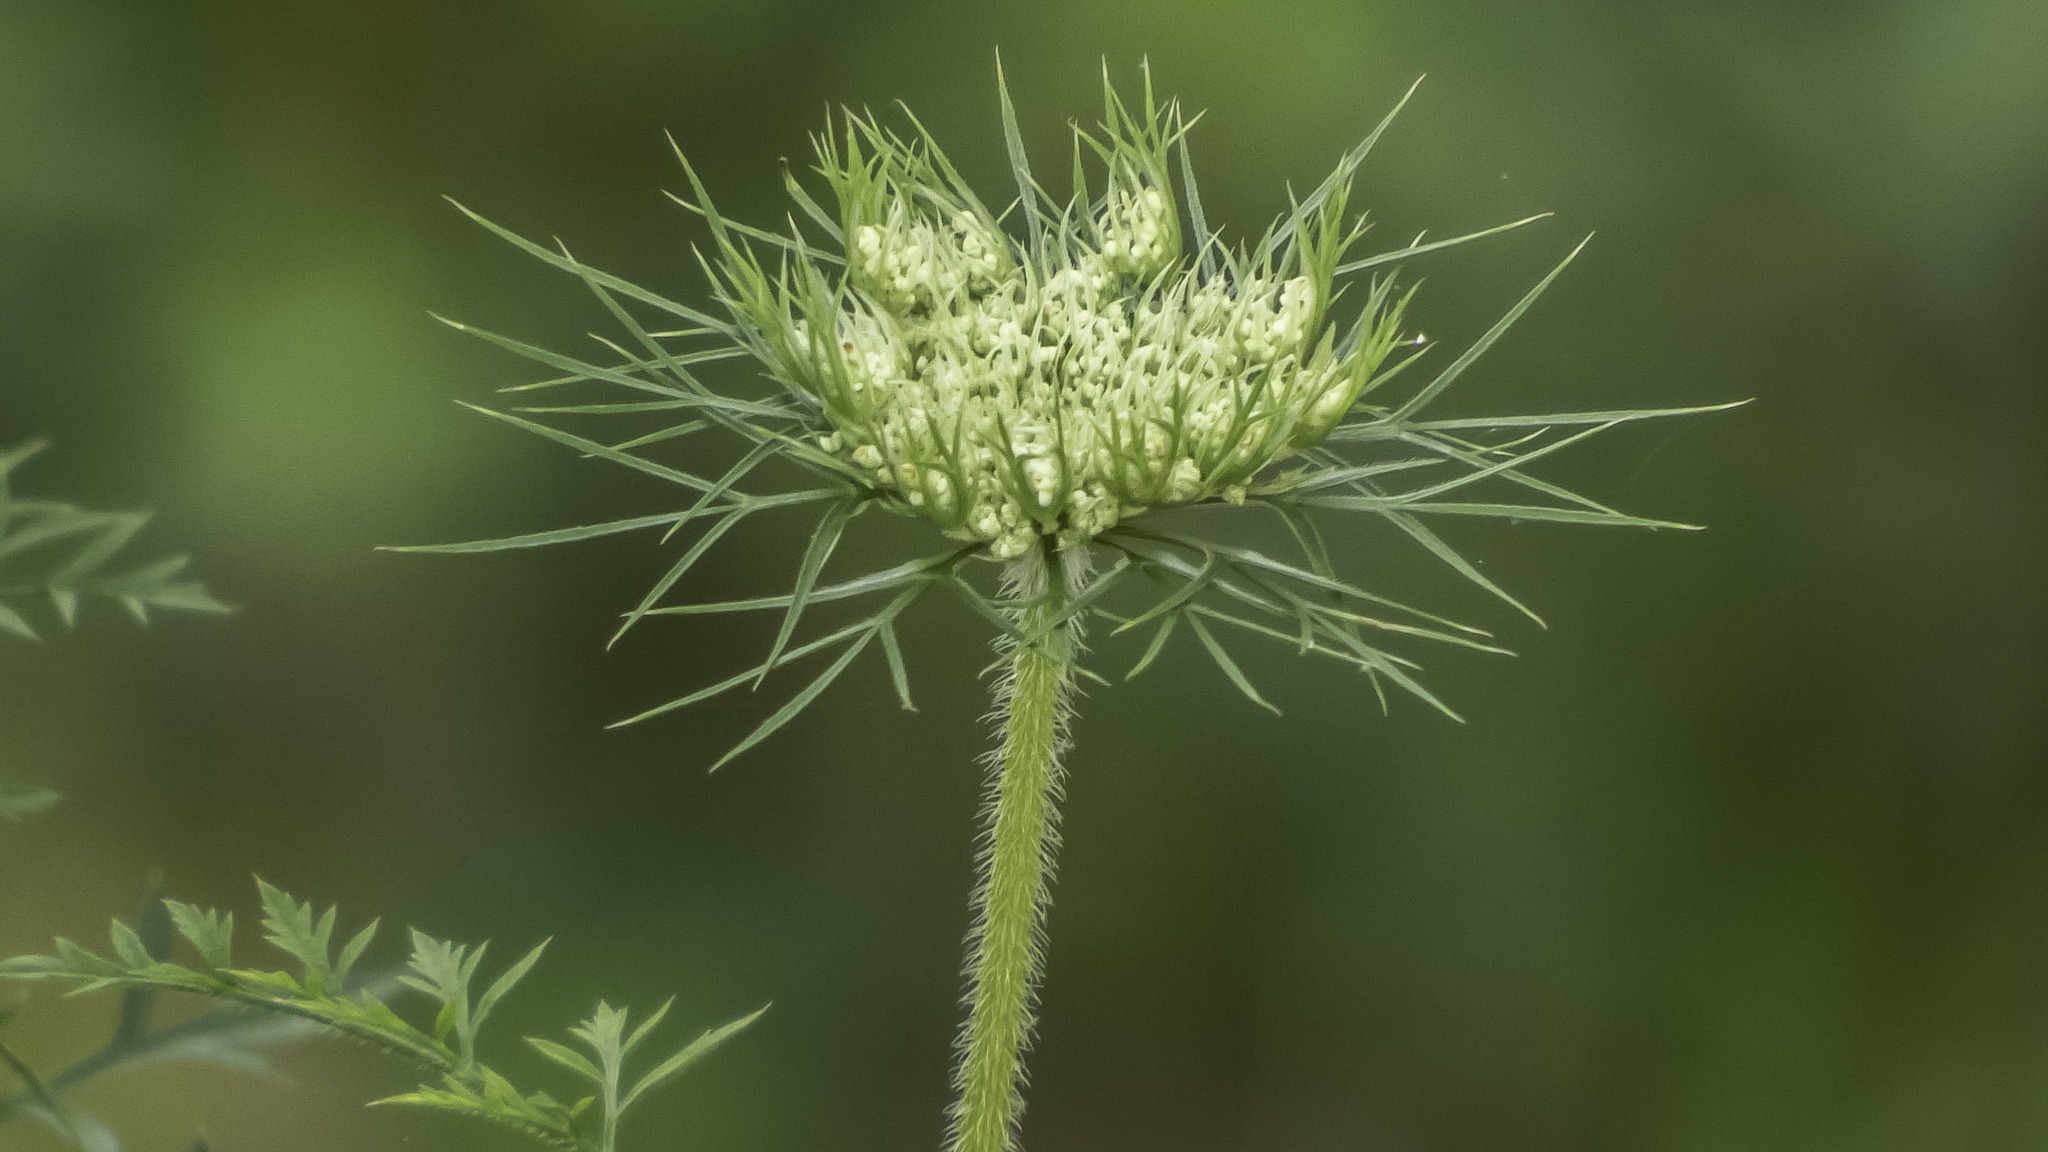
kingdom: Plantae
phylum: Tracheophyta
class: Magnoliopsida
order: Apiales
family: Apiaceae
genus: Daucus
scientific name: Daucus carota
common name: Wild carrot
